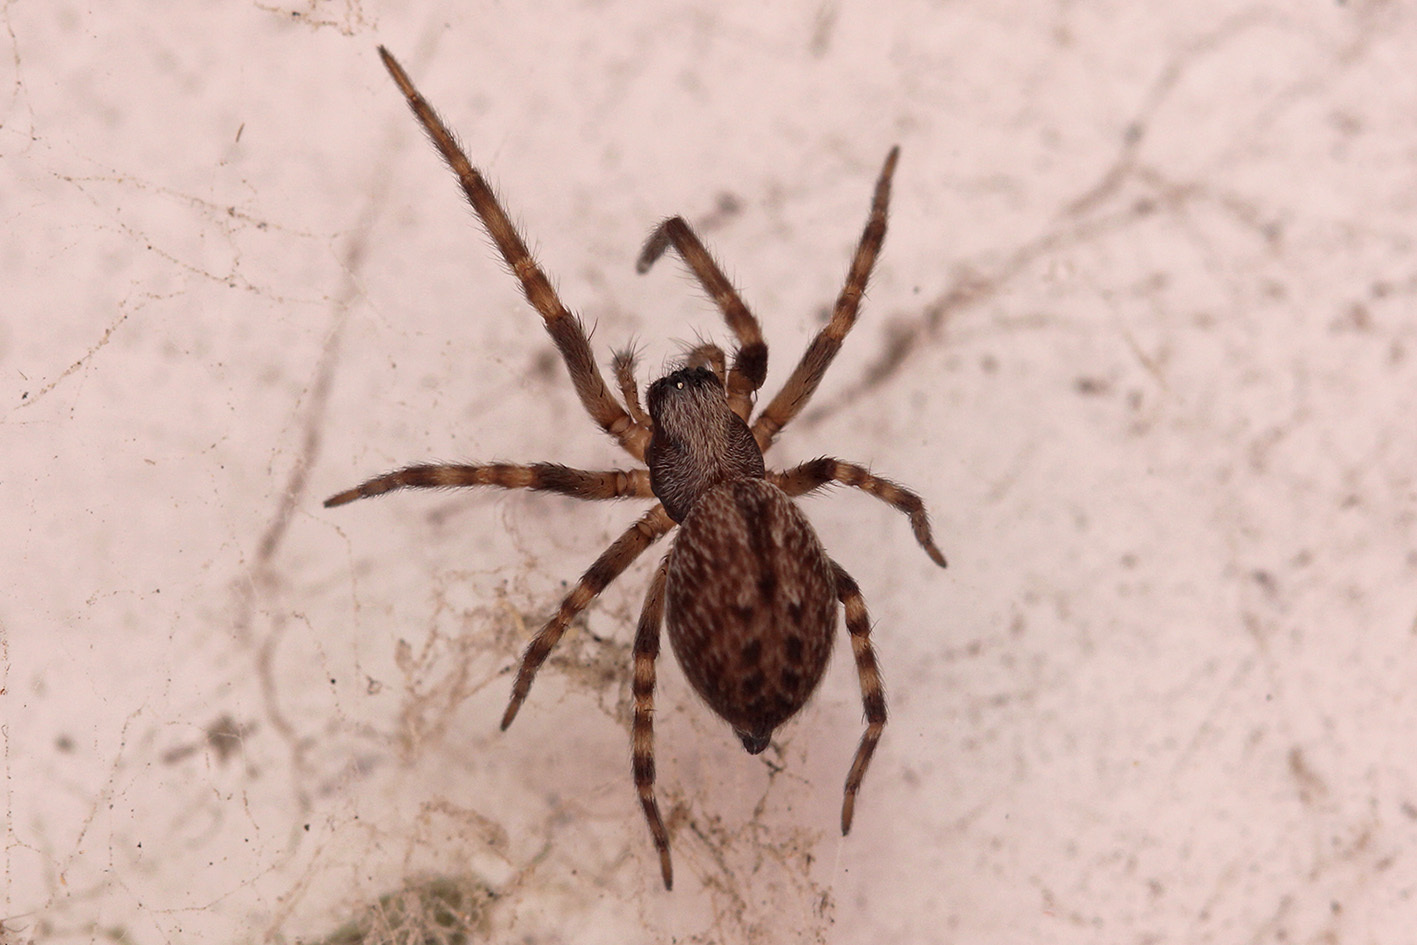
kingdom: Animalia
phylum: Arthropoda
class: Arachnida
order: Araneae
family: Desidae
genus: Badumna
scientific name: Badumna longinqua
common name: Gray house spider
